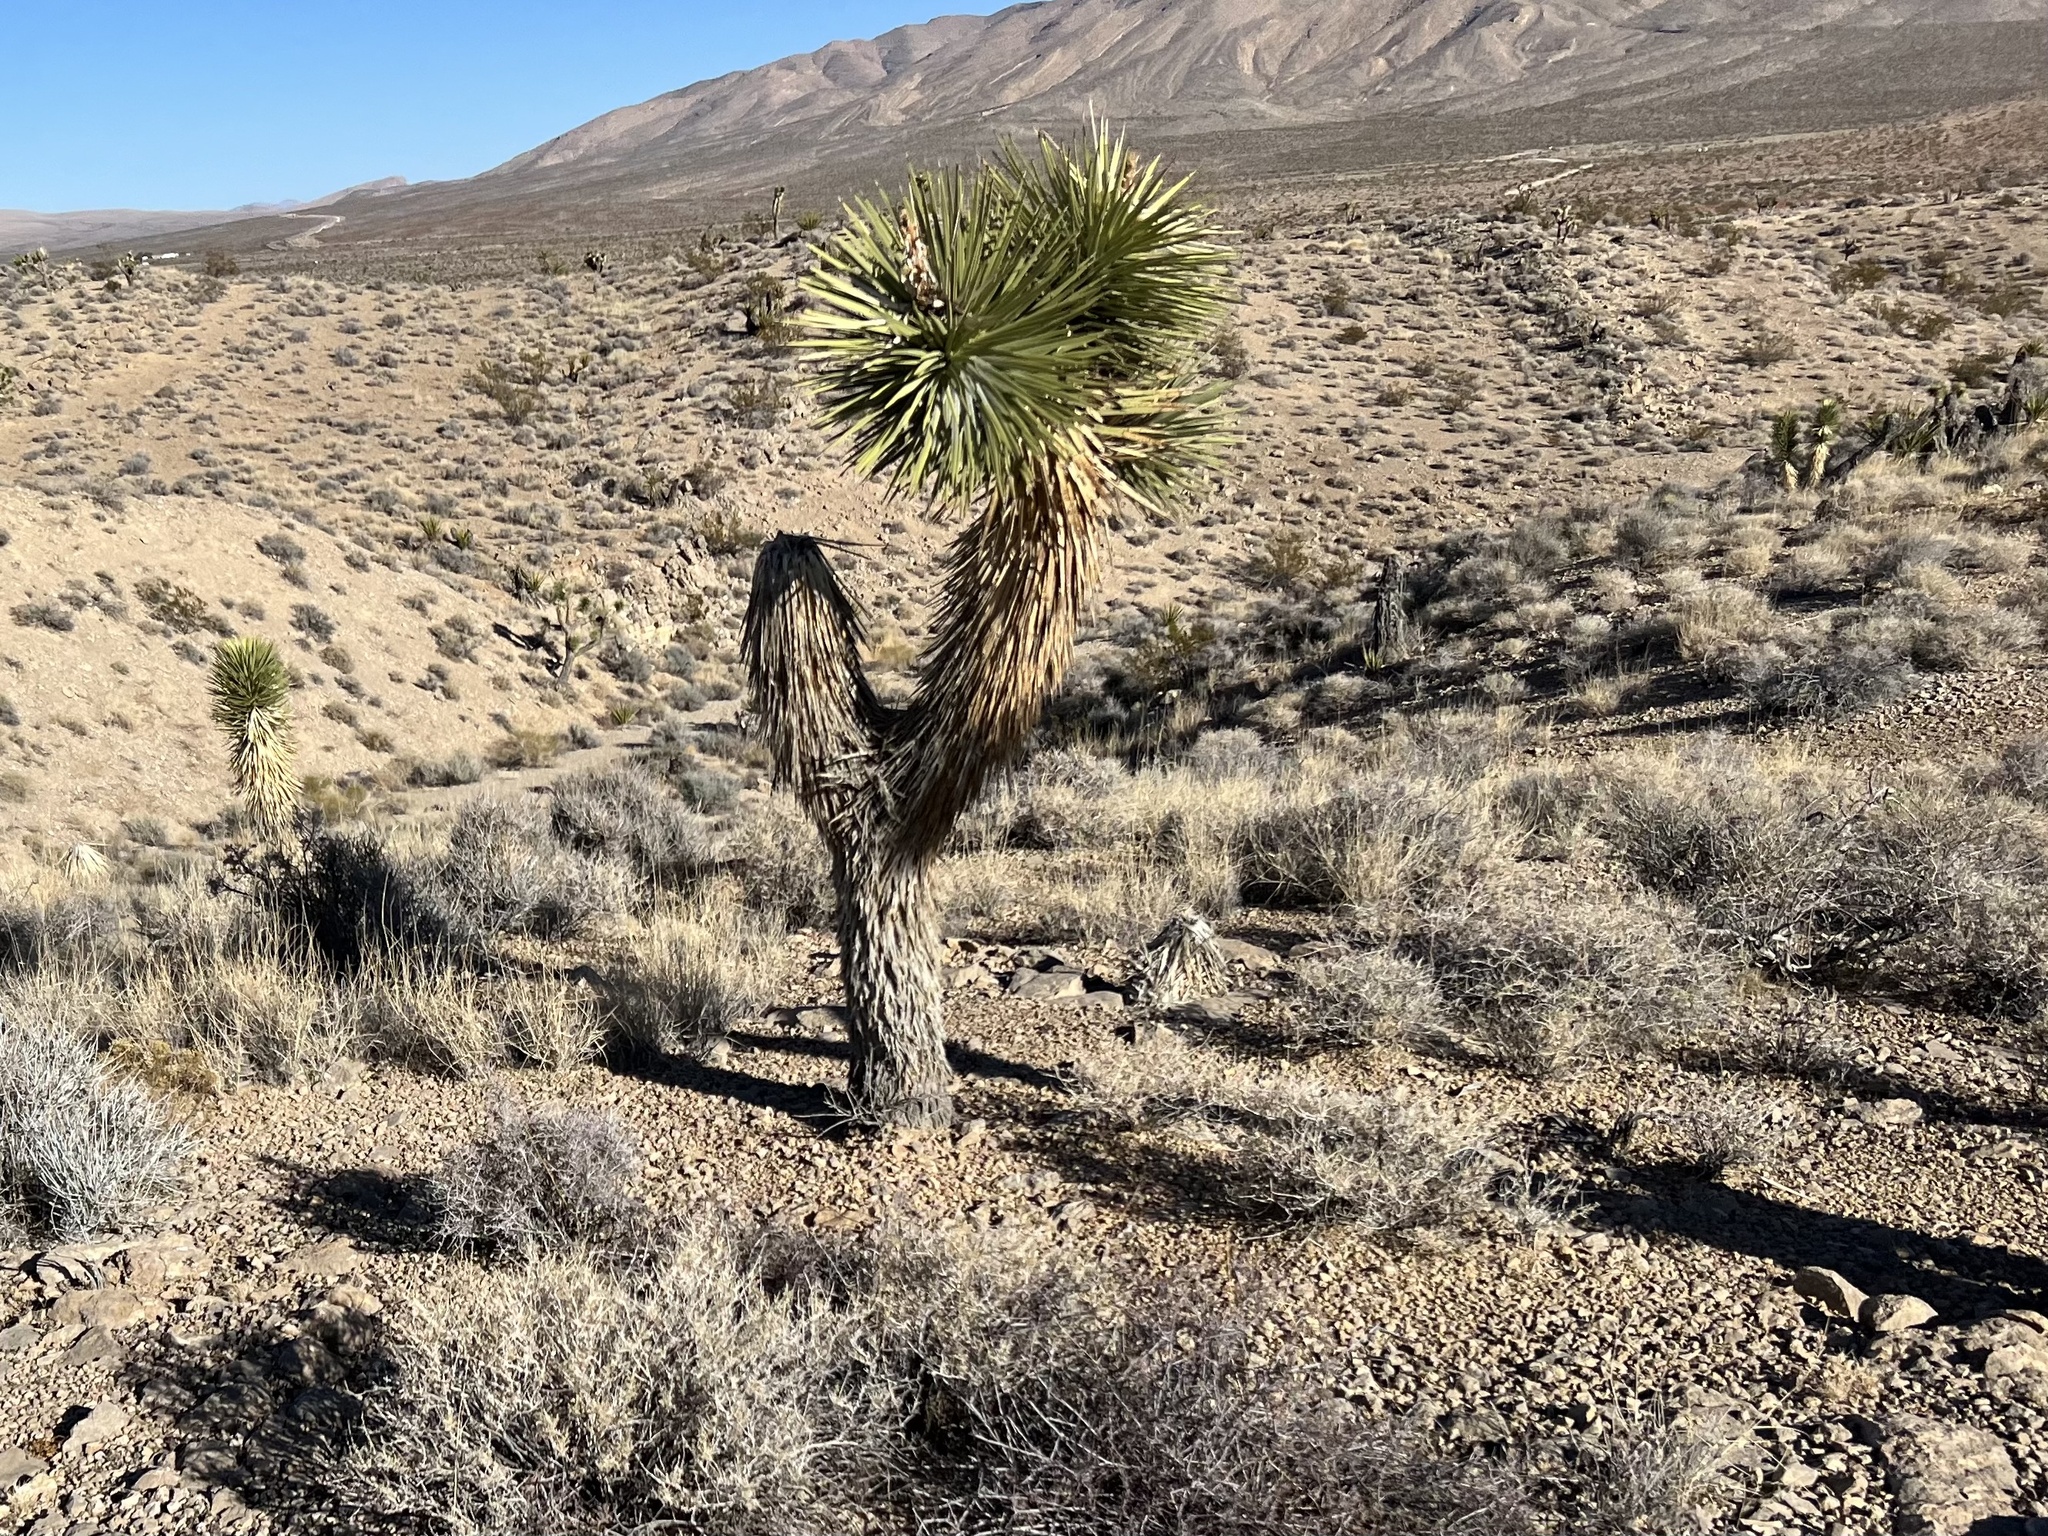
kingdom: Plantae
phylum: Tracheophyta
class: Liliopsida
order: Asparagales
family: Asparagaceae
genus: Yucca
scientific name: Yucca brevifolia
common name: Joshua tree
